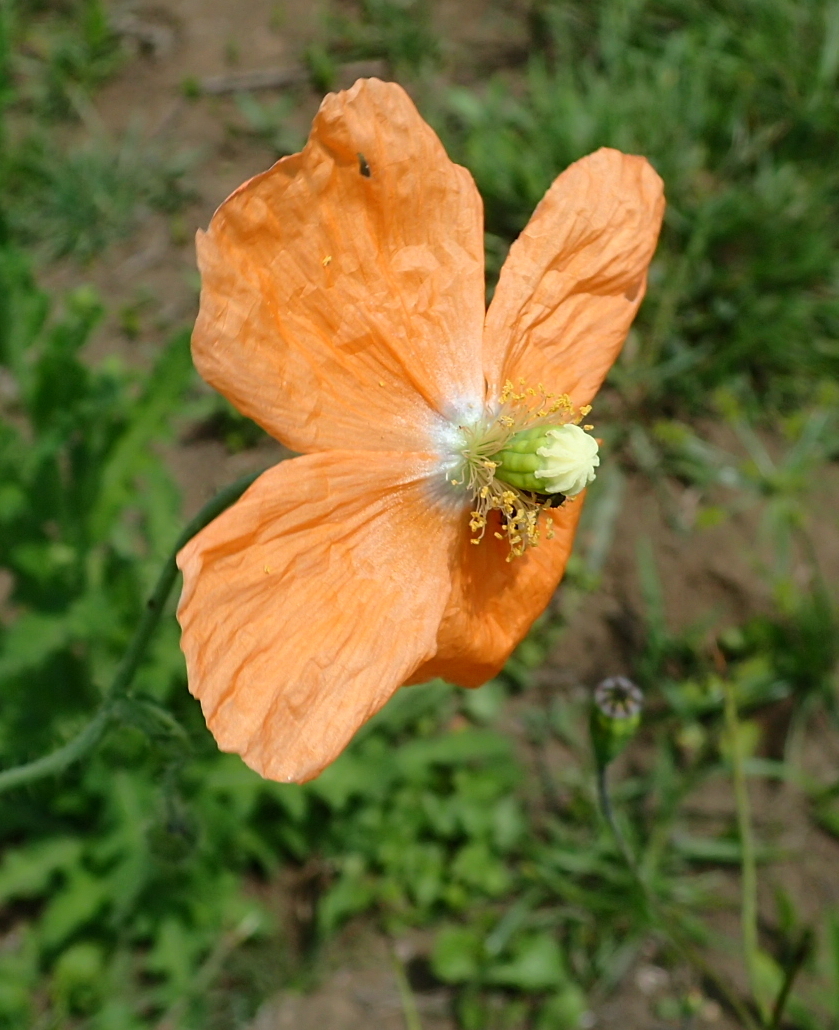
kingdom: Plantae
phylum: Tracheophyta
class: Magnoliopsida
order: Ranunculales
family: Papaveraceae
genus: Papaver
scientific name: Papaver aculeatum
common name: Bristle poppy
